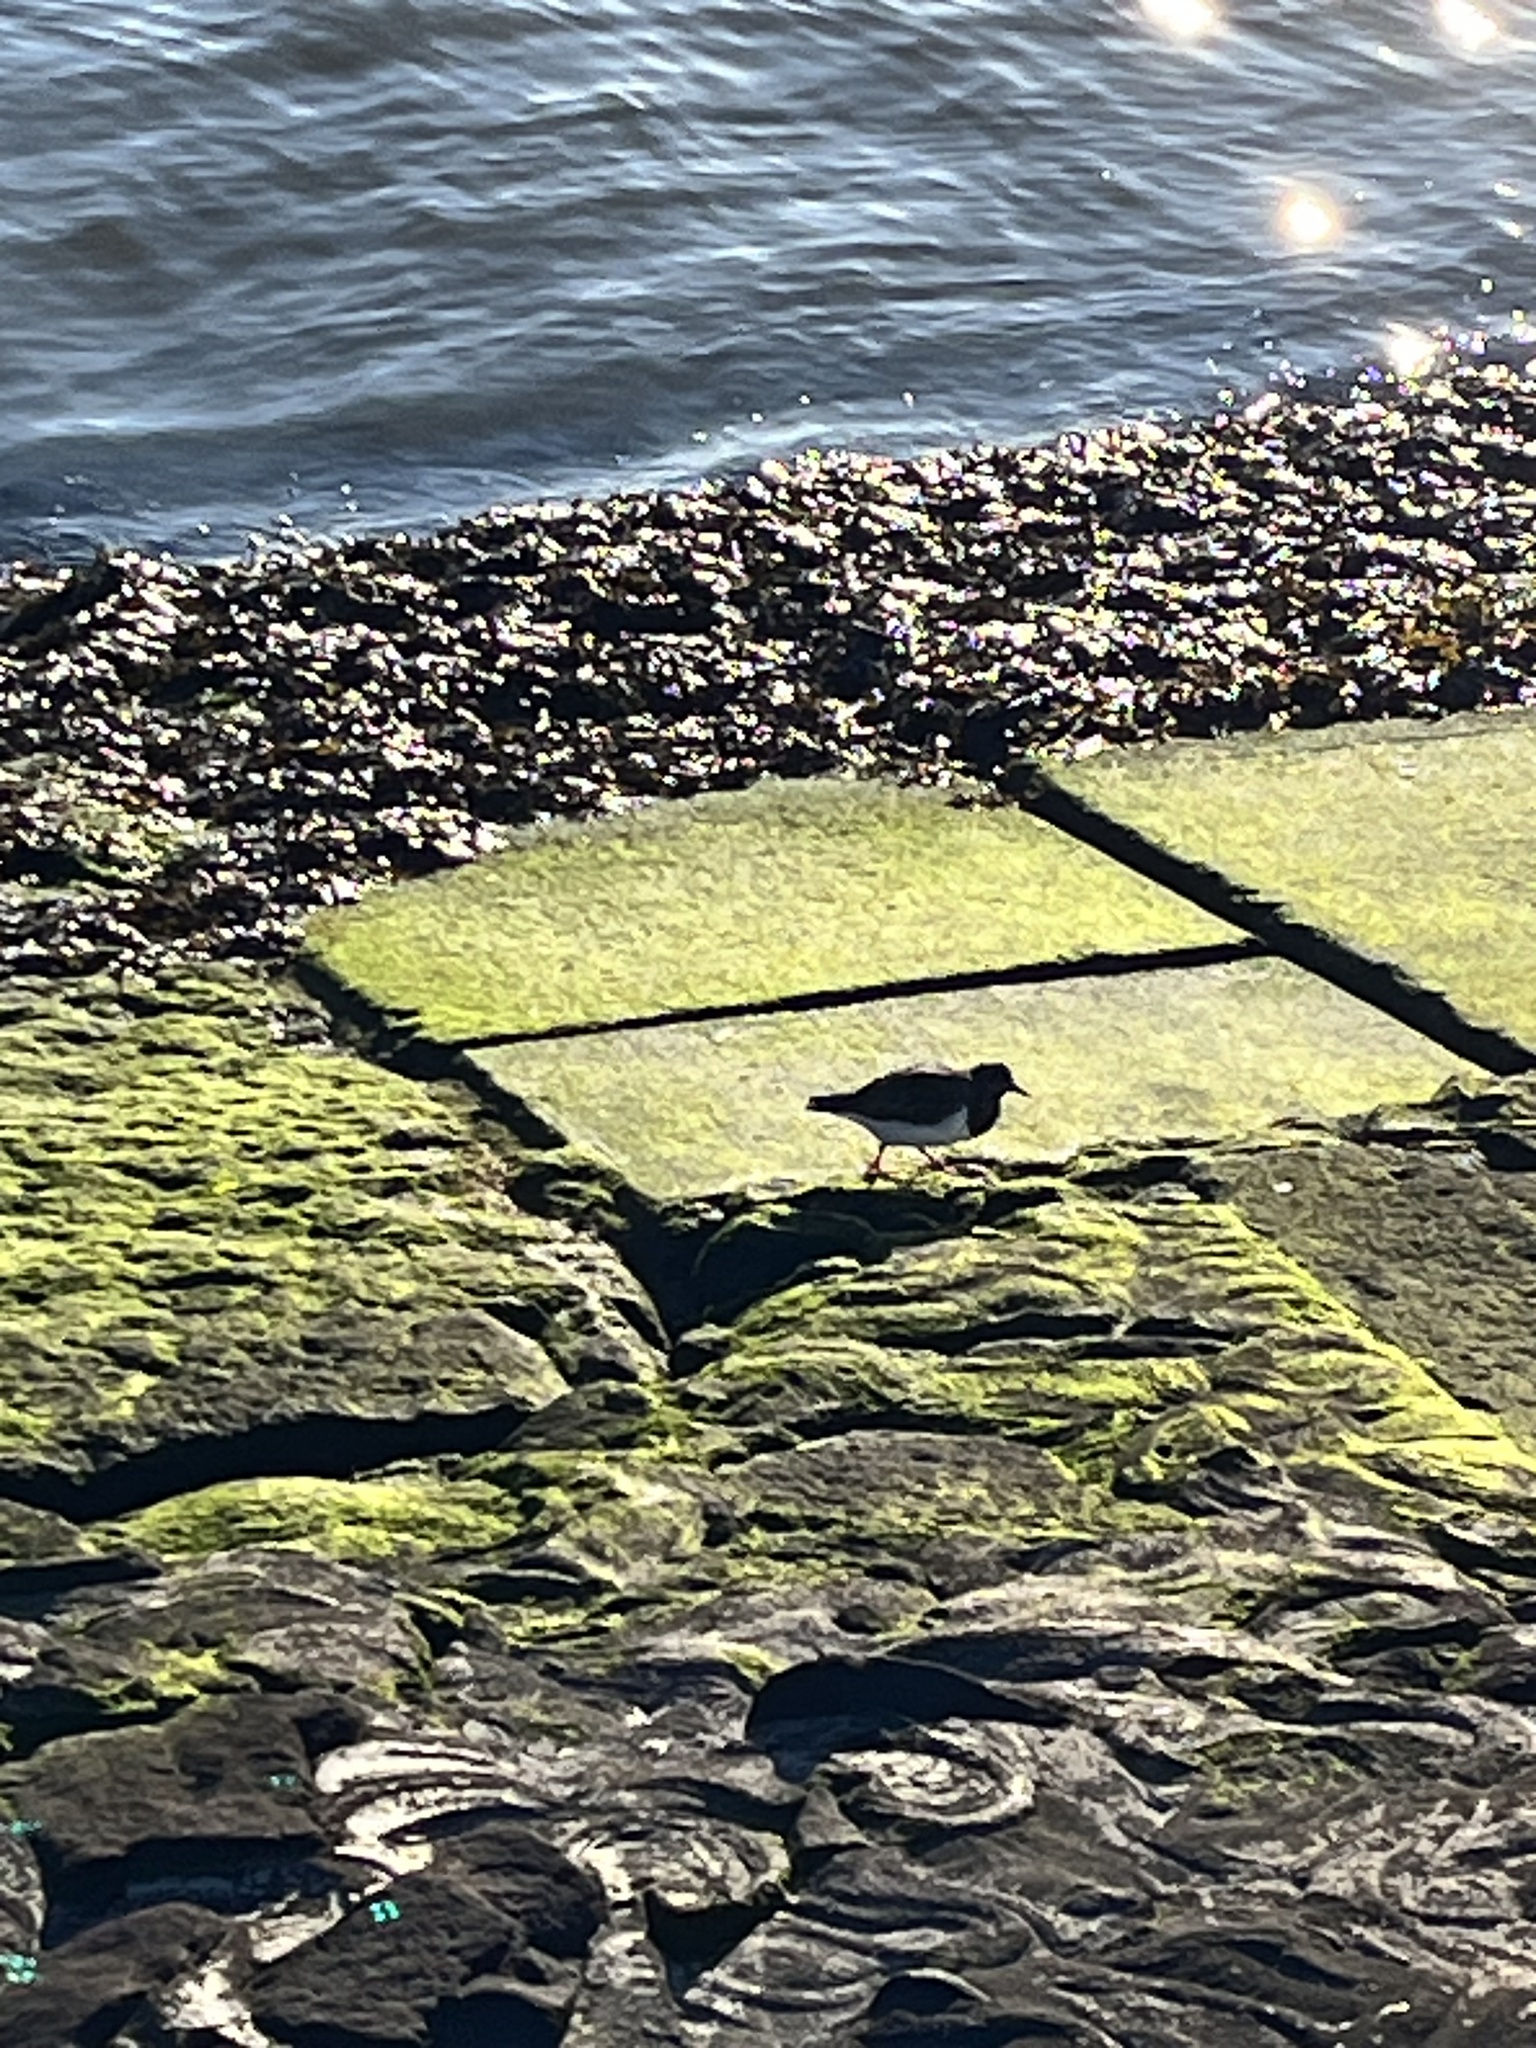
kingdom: Animalia
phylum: Chordata
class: Aves
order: Charadriiformes
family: Scolopacidae
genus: Arenaria
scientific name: Arenaria interpres
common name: Ruddy turnstone
